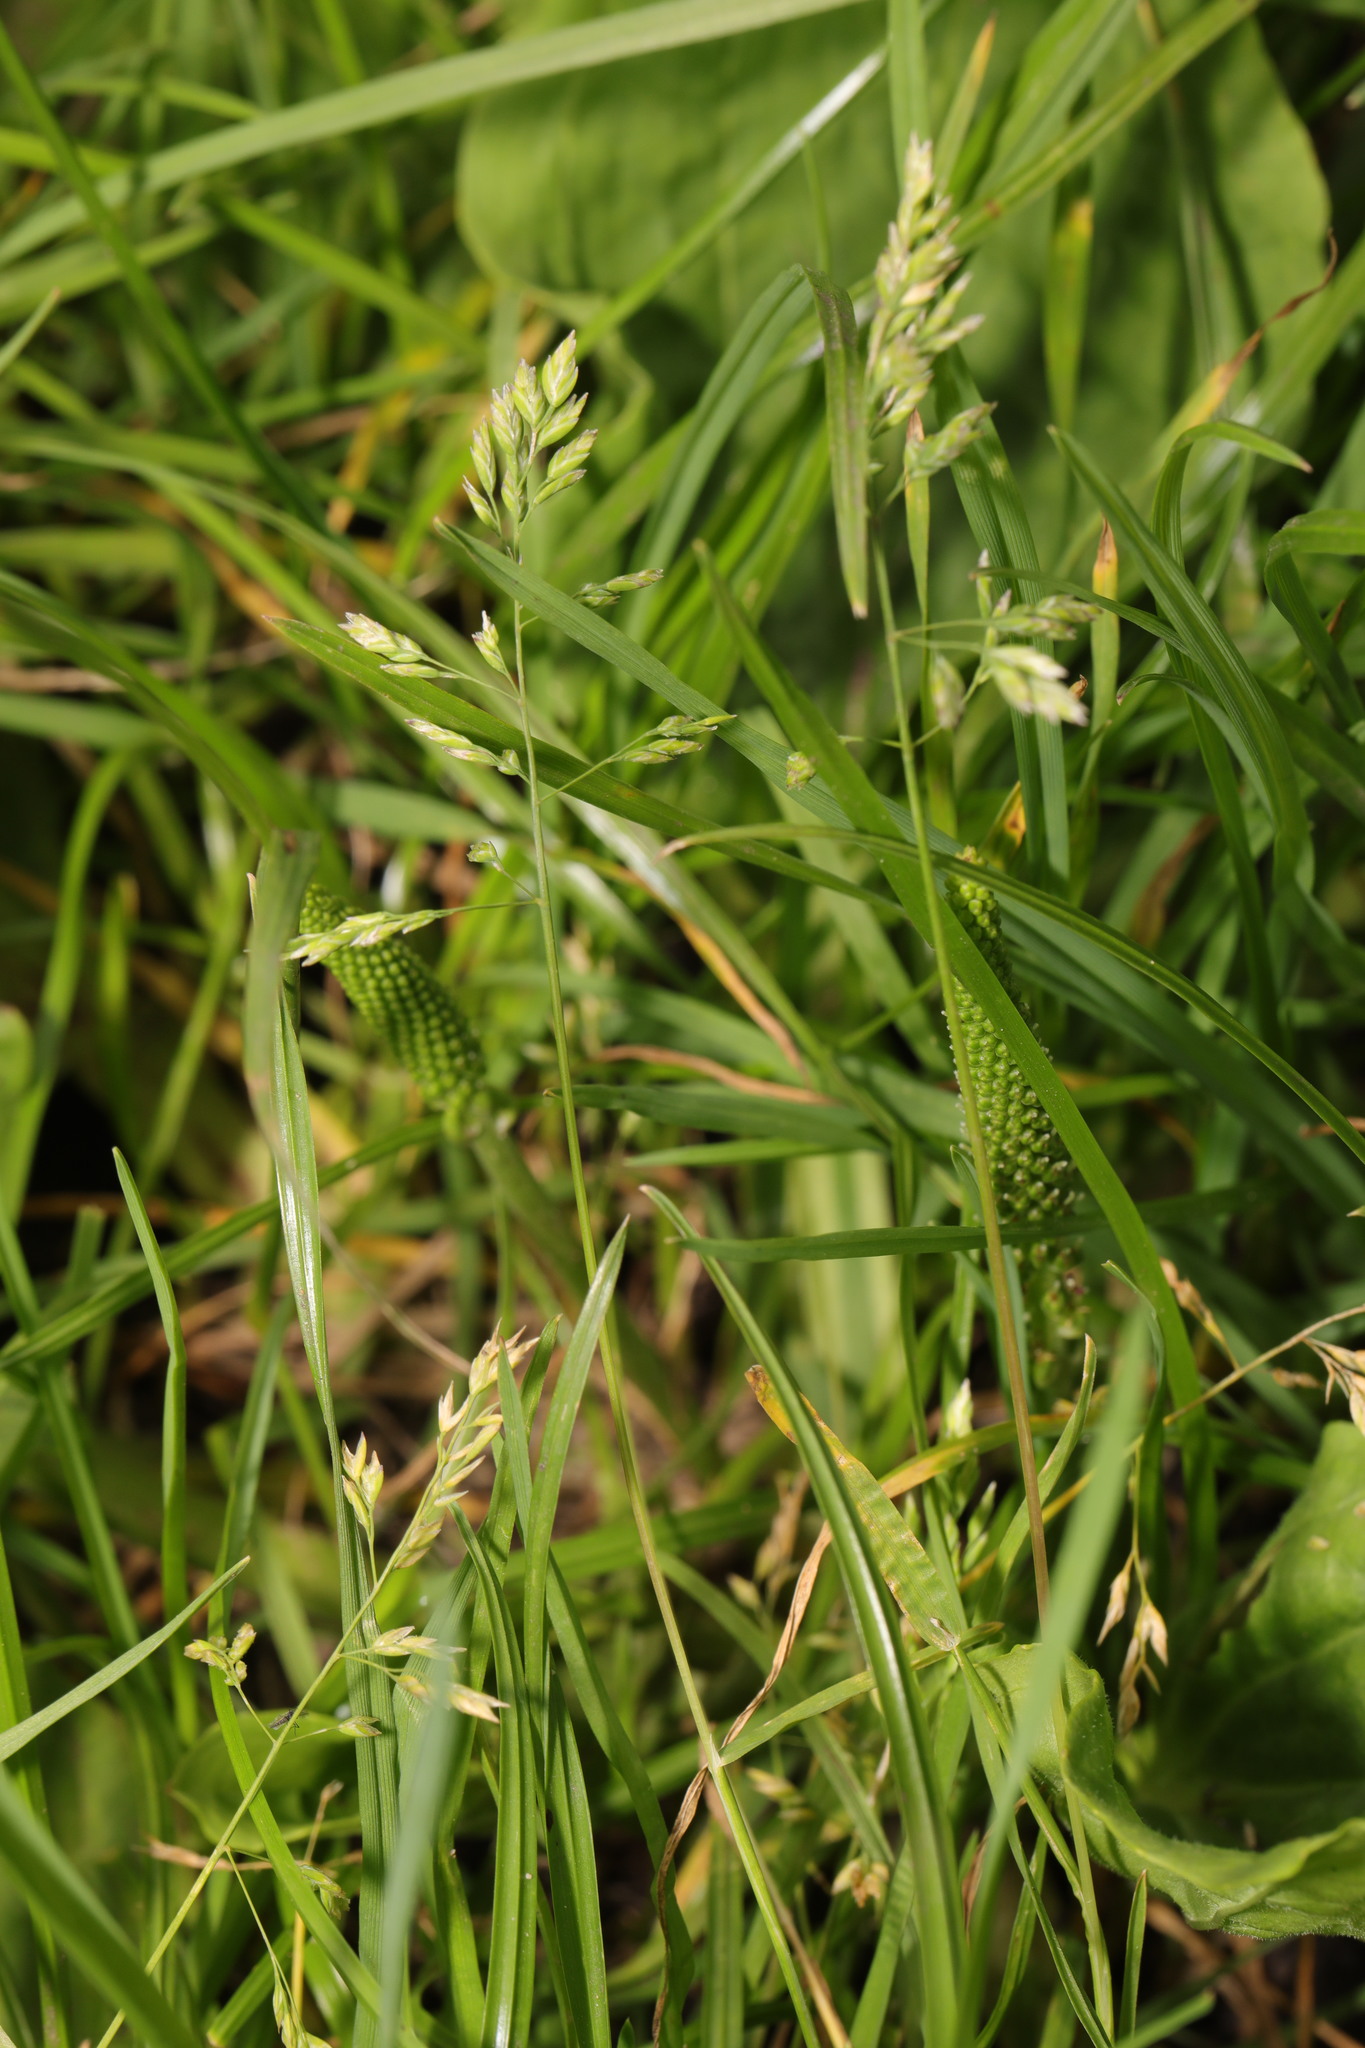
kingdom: Plantae
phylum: Tracheophyta
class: Liliopsida
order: Poales
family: Poaceae
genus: Poa
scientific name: Poa trivialis
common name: Rough bluegrass
